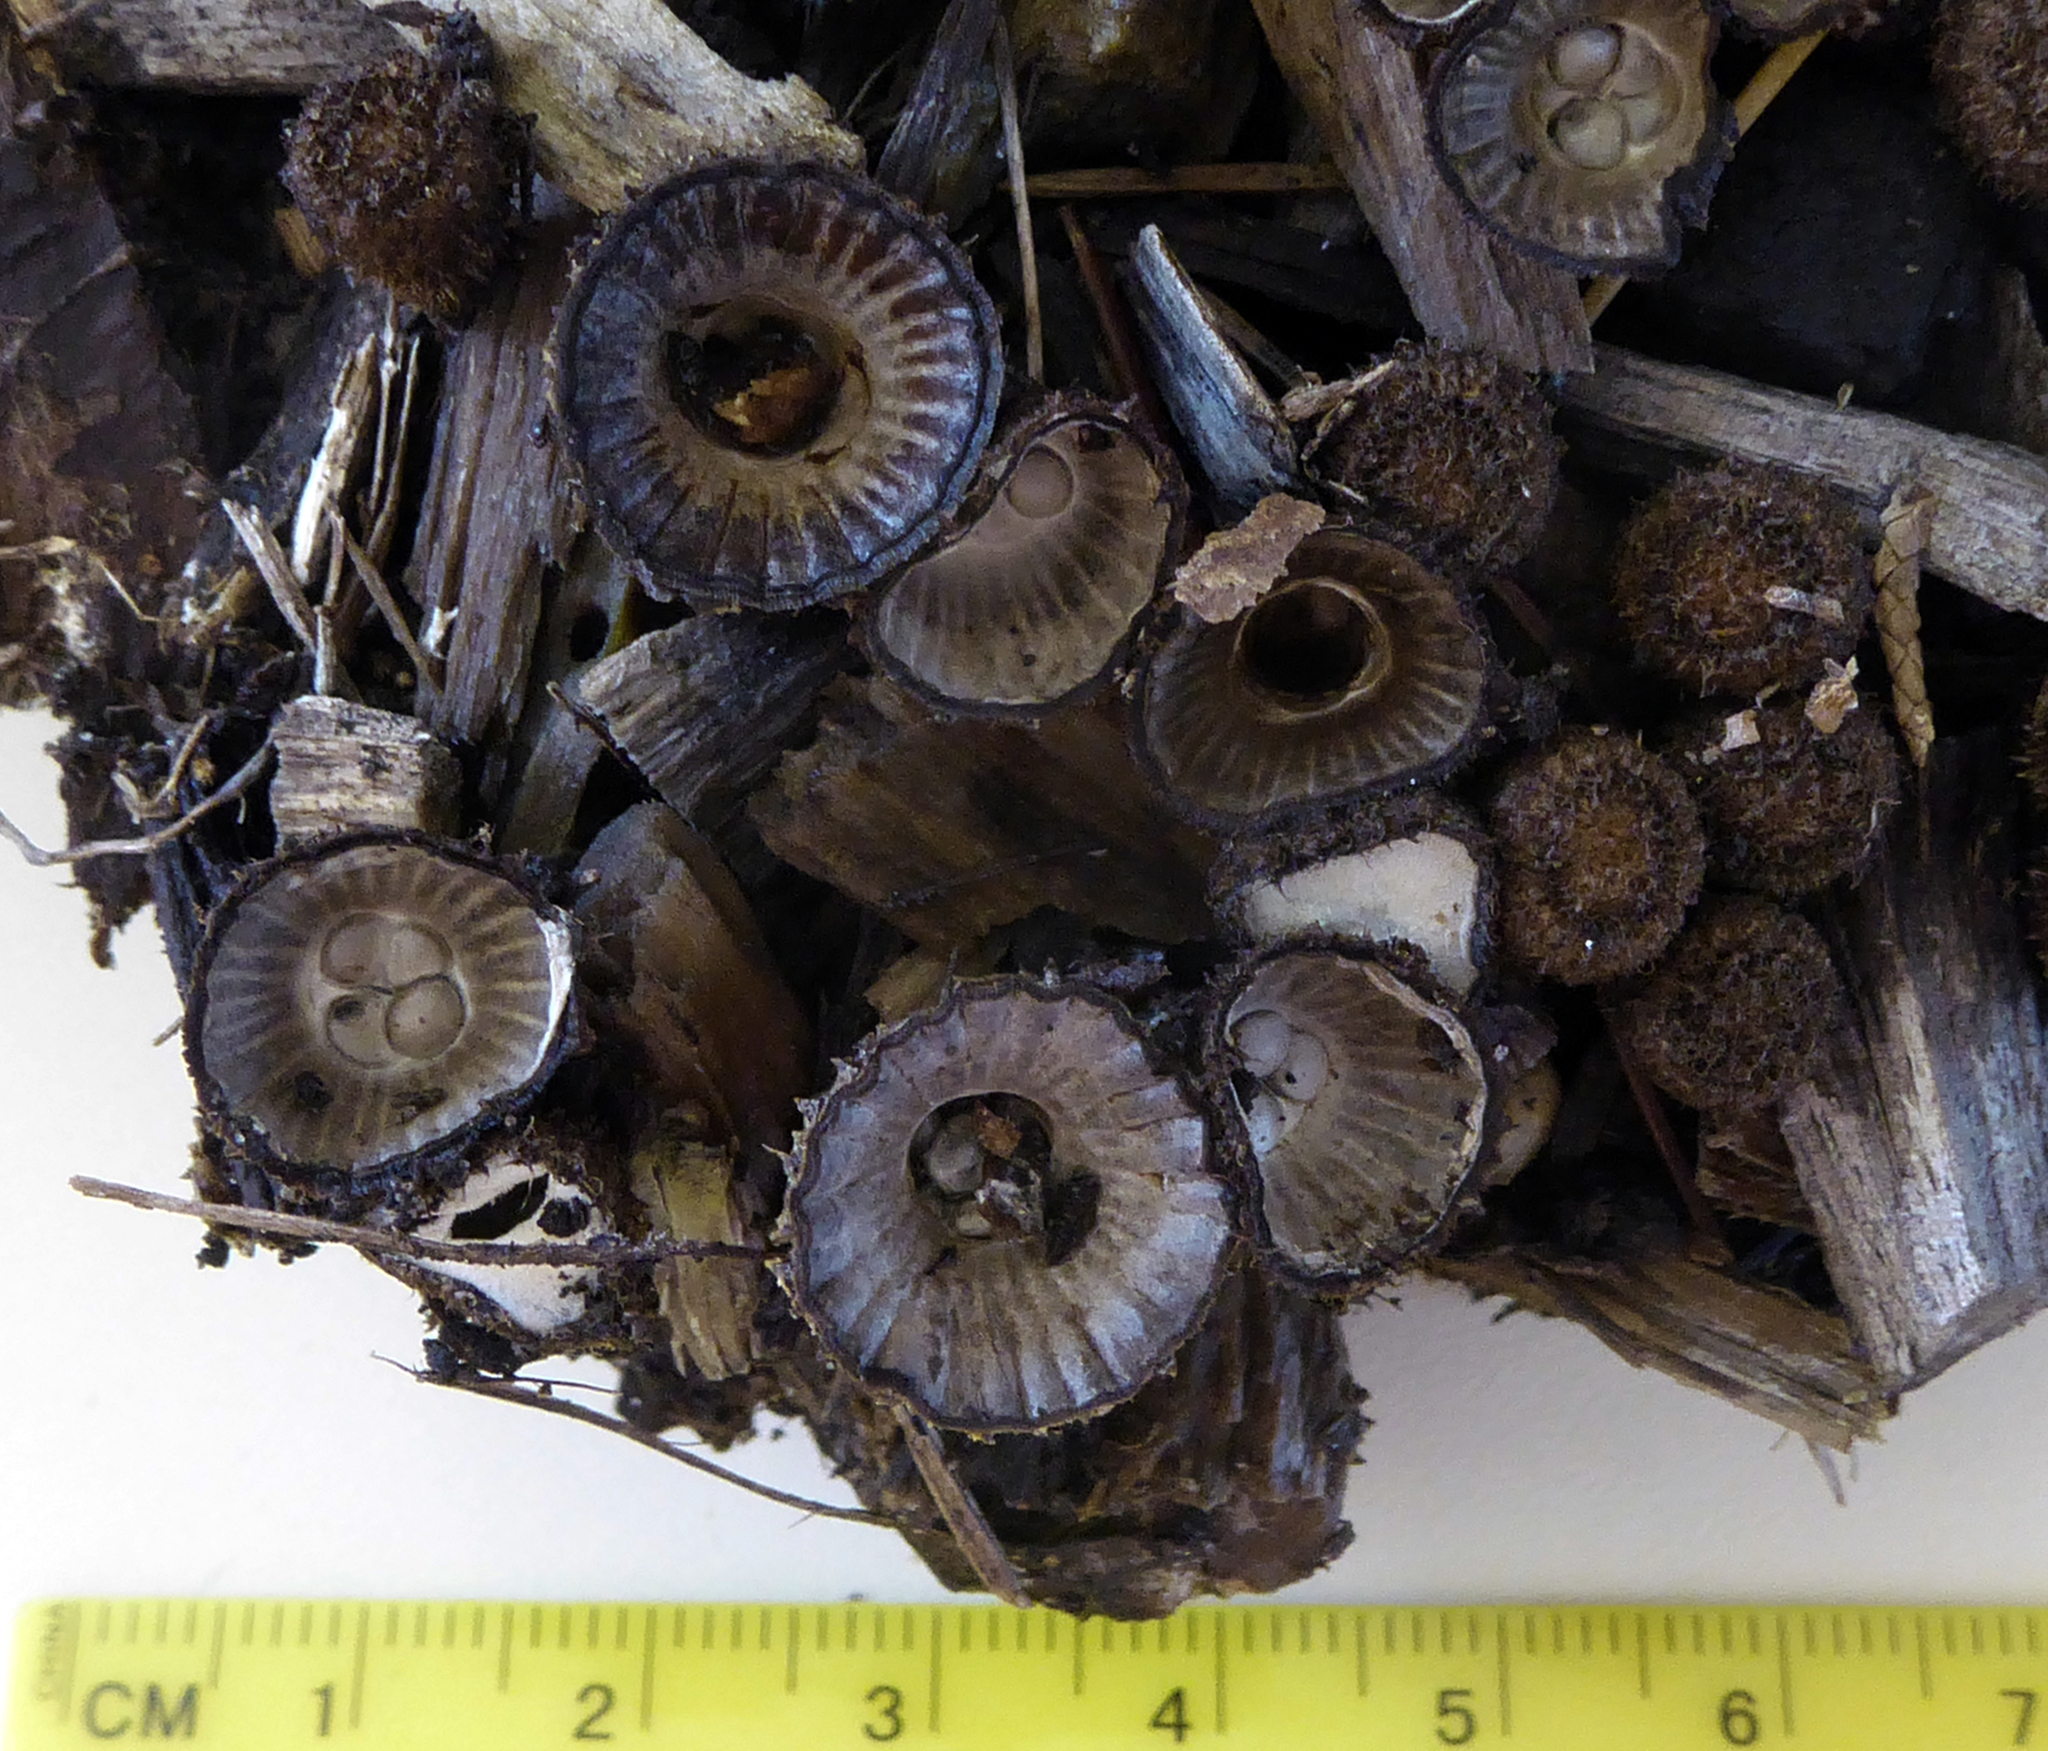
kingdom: Fungi
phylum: Basidiomycota
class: Agaricomycetes
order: Agaricales
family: Agaricaceae
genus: Cyathus
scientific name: Cyathus striatus
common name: Fluted bird's nest
